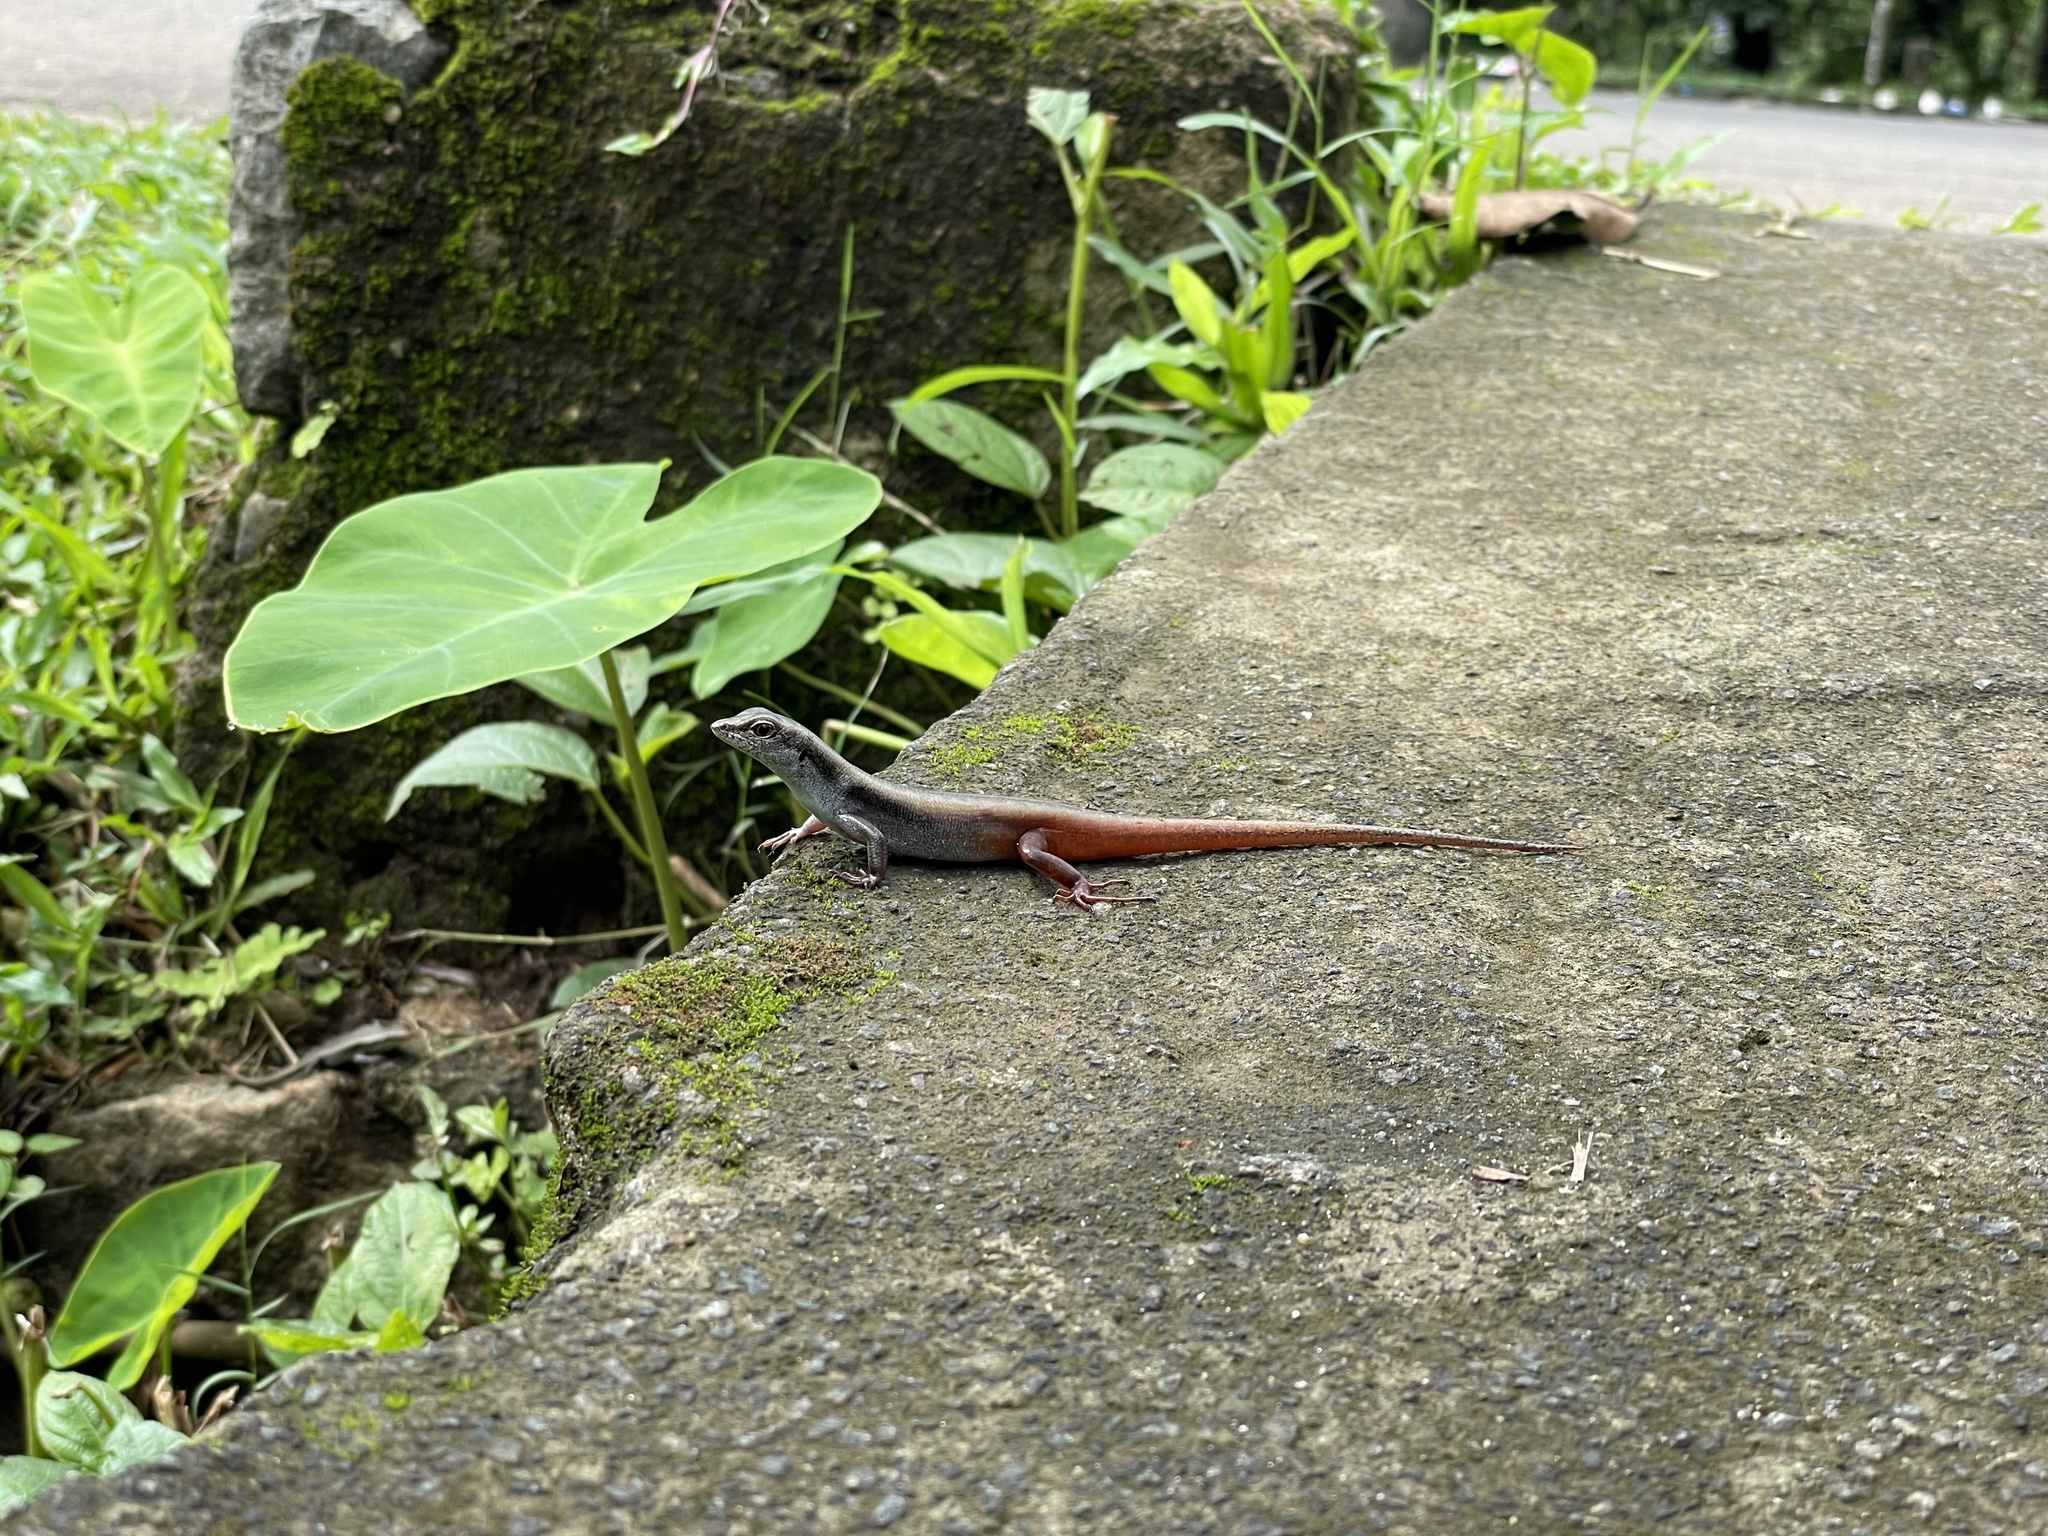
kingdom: Animalia
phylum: Chordata
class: Squamata
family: Scincidae
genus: Sphenomorphus
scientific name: Sphenomorphus dussumieri
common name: Dussumier's forest skink
